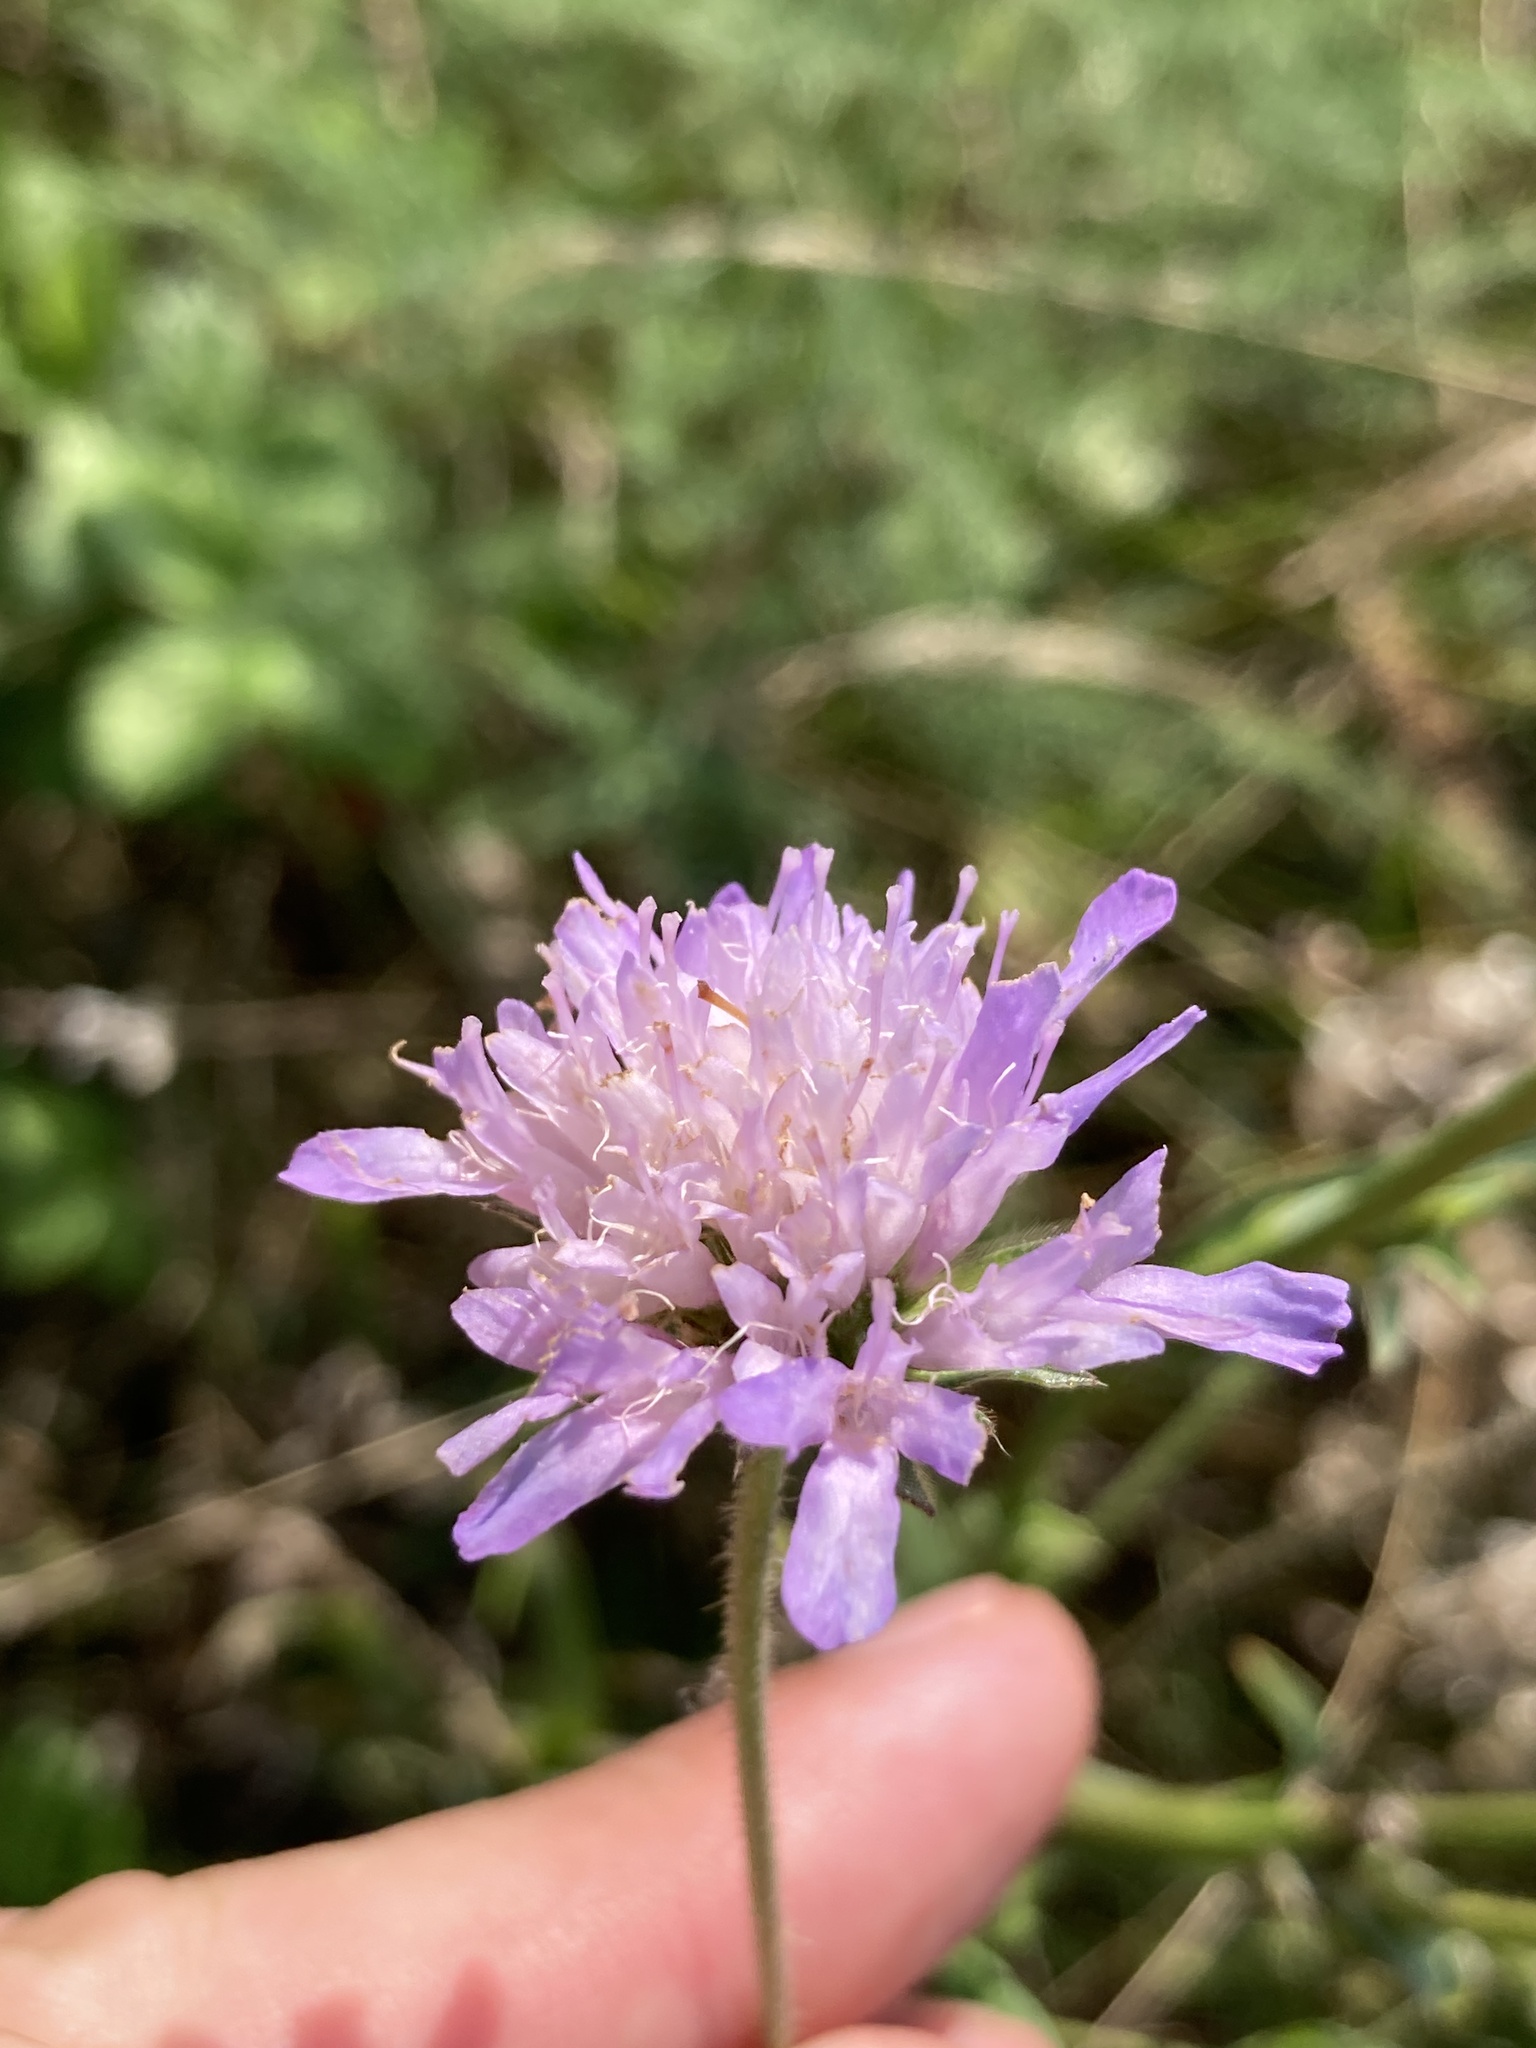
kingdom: Plantae
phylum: Tracheophyta
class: Magnoliopsida
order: Dipsacales
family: Caprifoliaceae
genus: Knautia
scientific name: Knautia arvensis
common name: Field scabiosa
